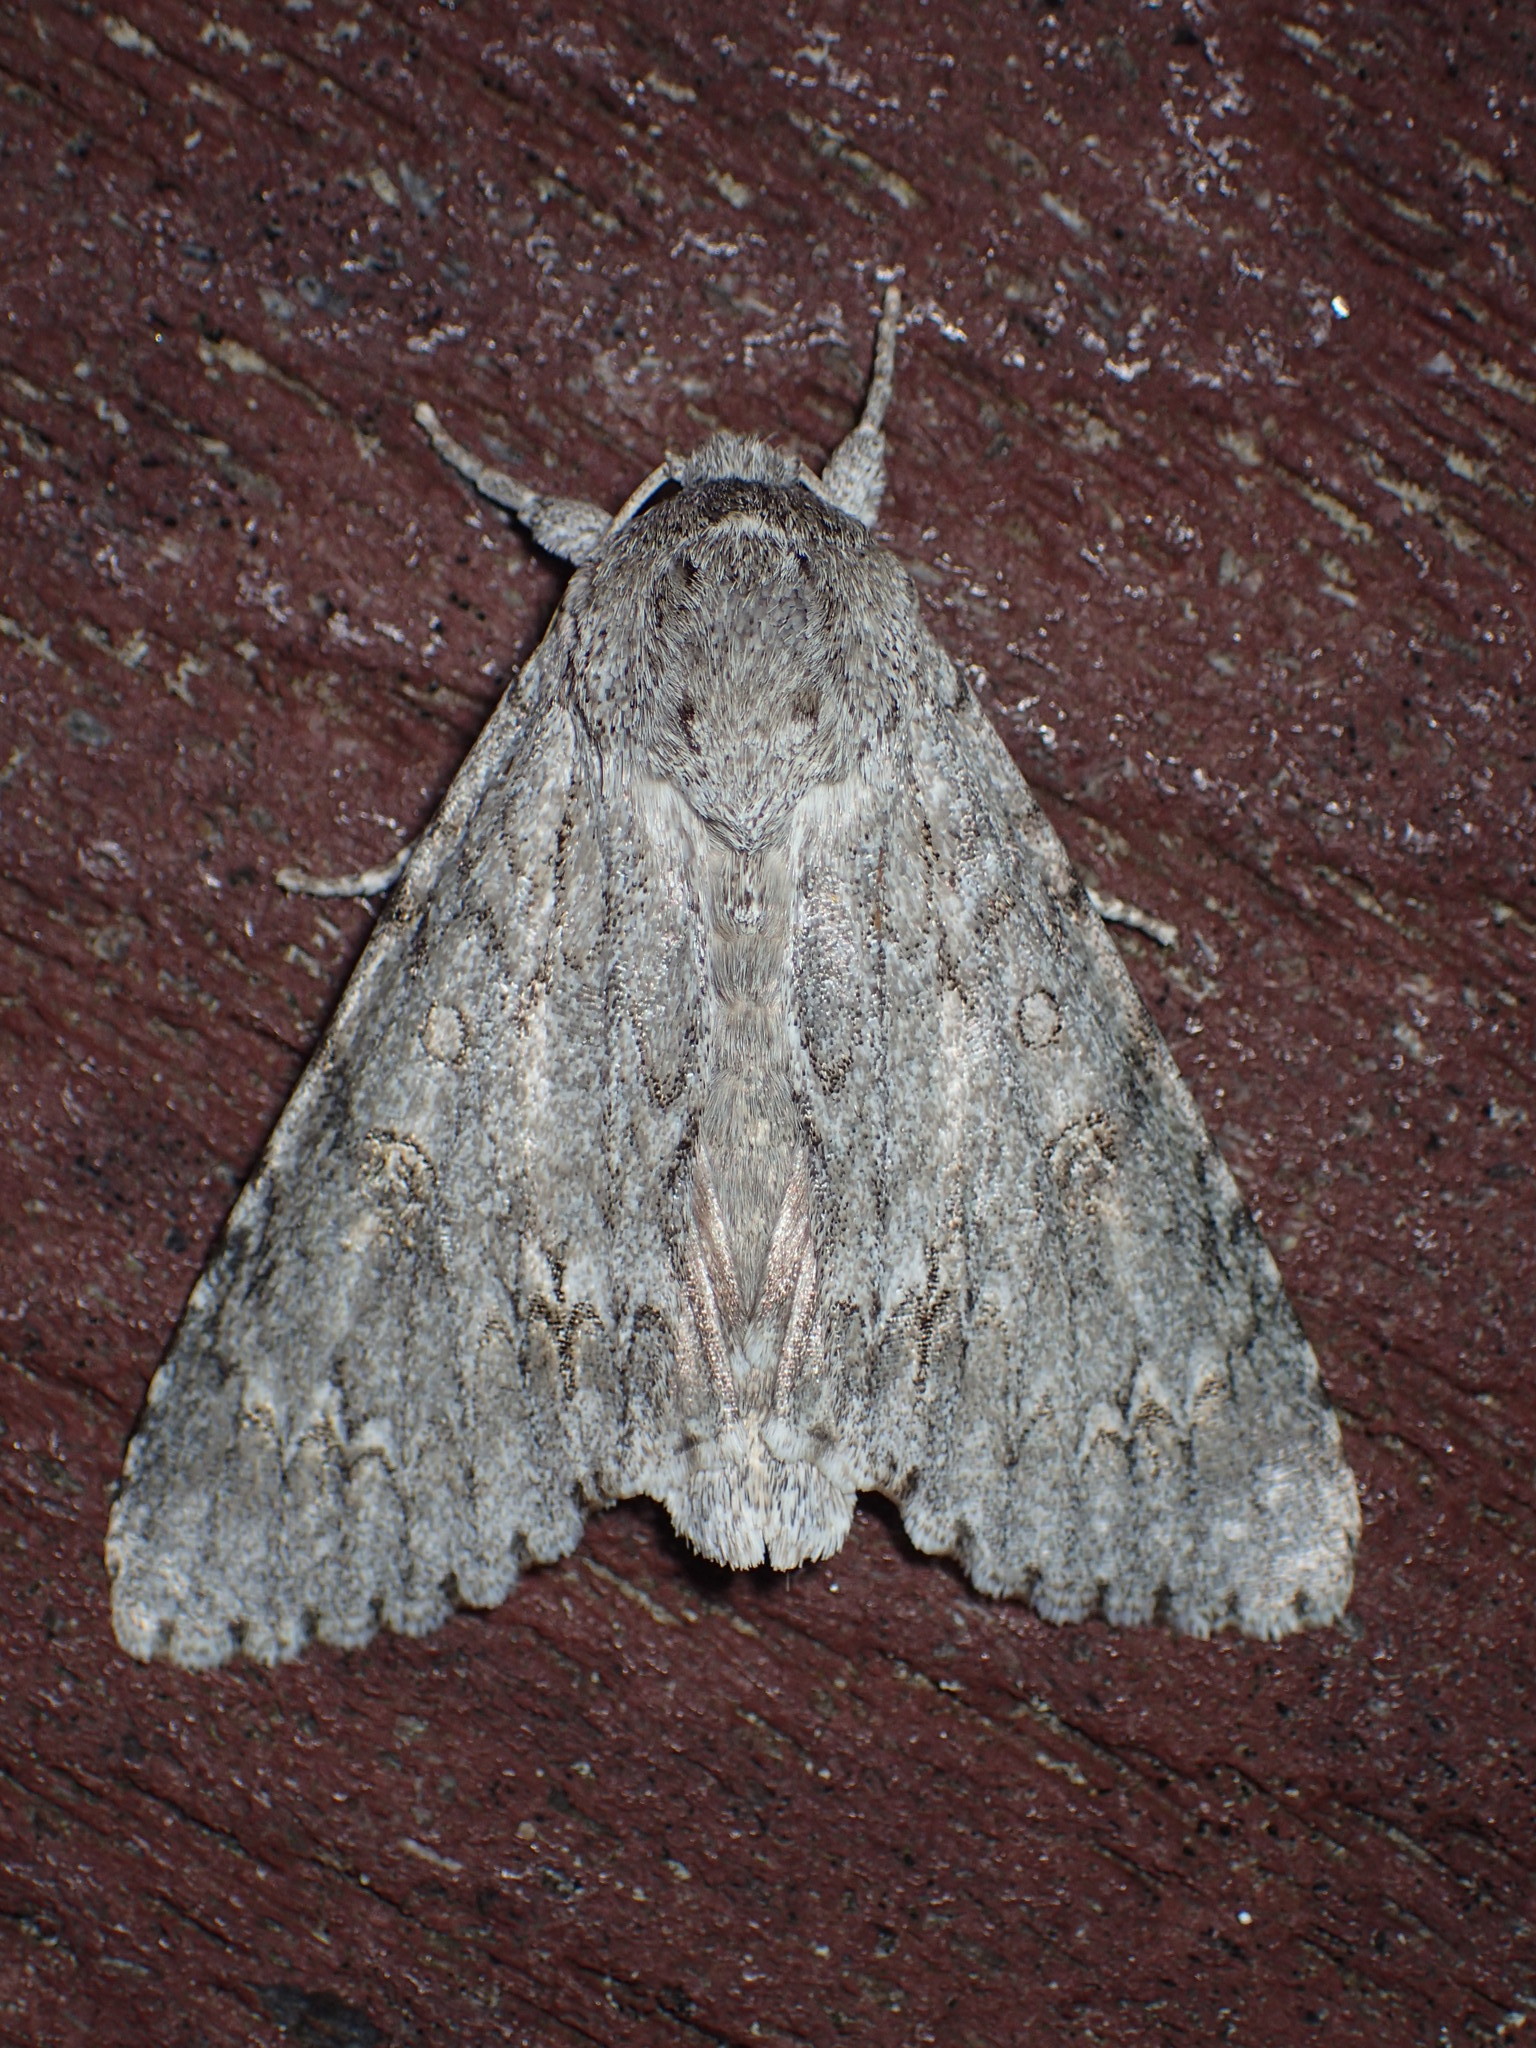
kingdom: Animalia
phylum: Arthropoda
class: Insecta
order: Lepidoptera
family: Noctuidae
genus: Acronicta
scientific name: Acronicta americana
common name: American dagger
